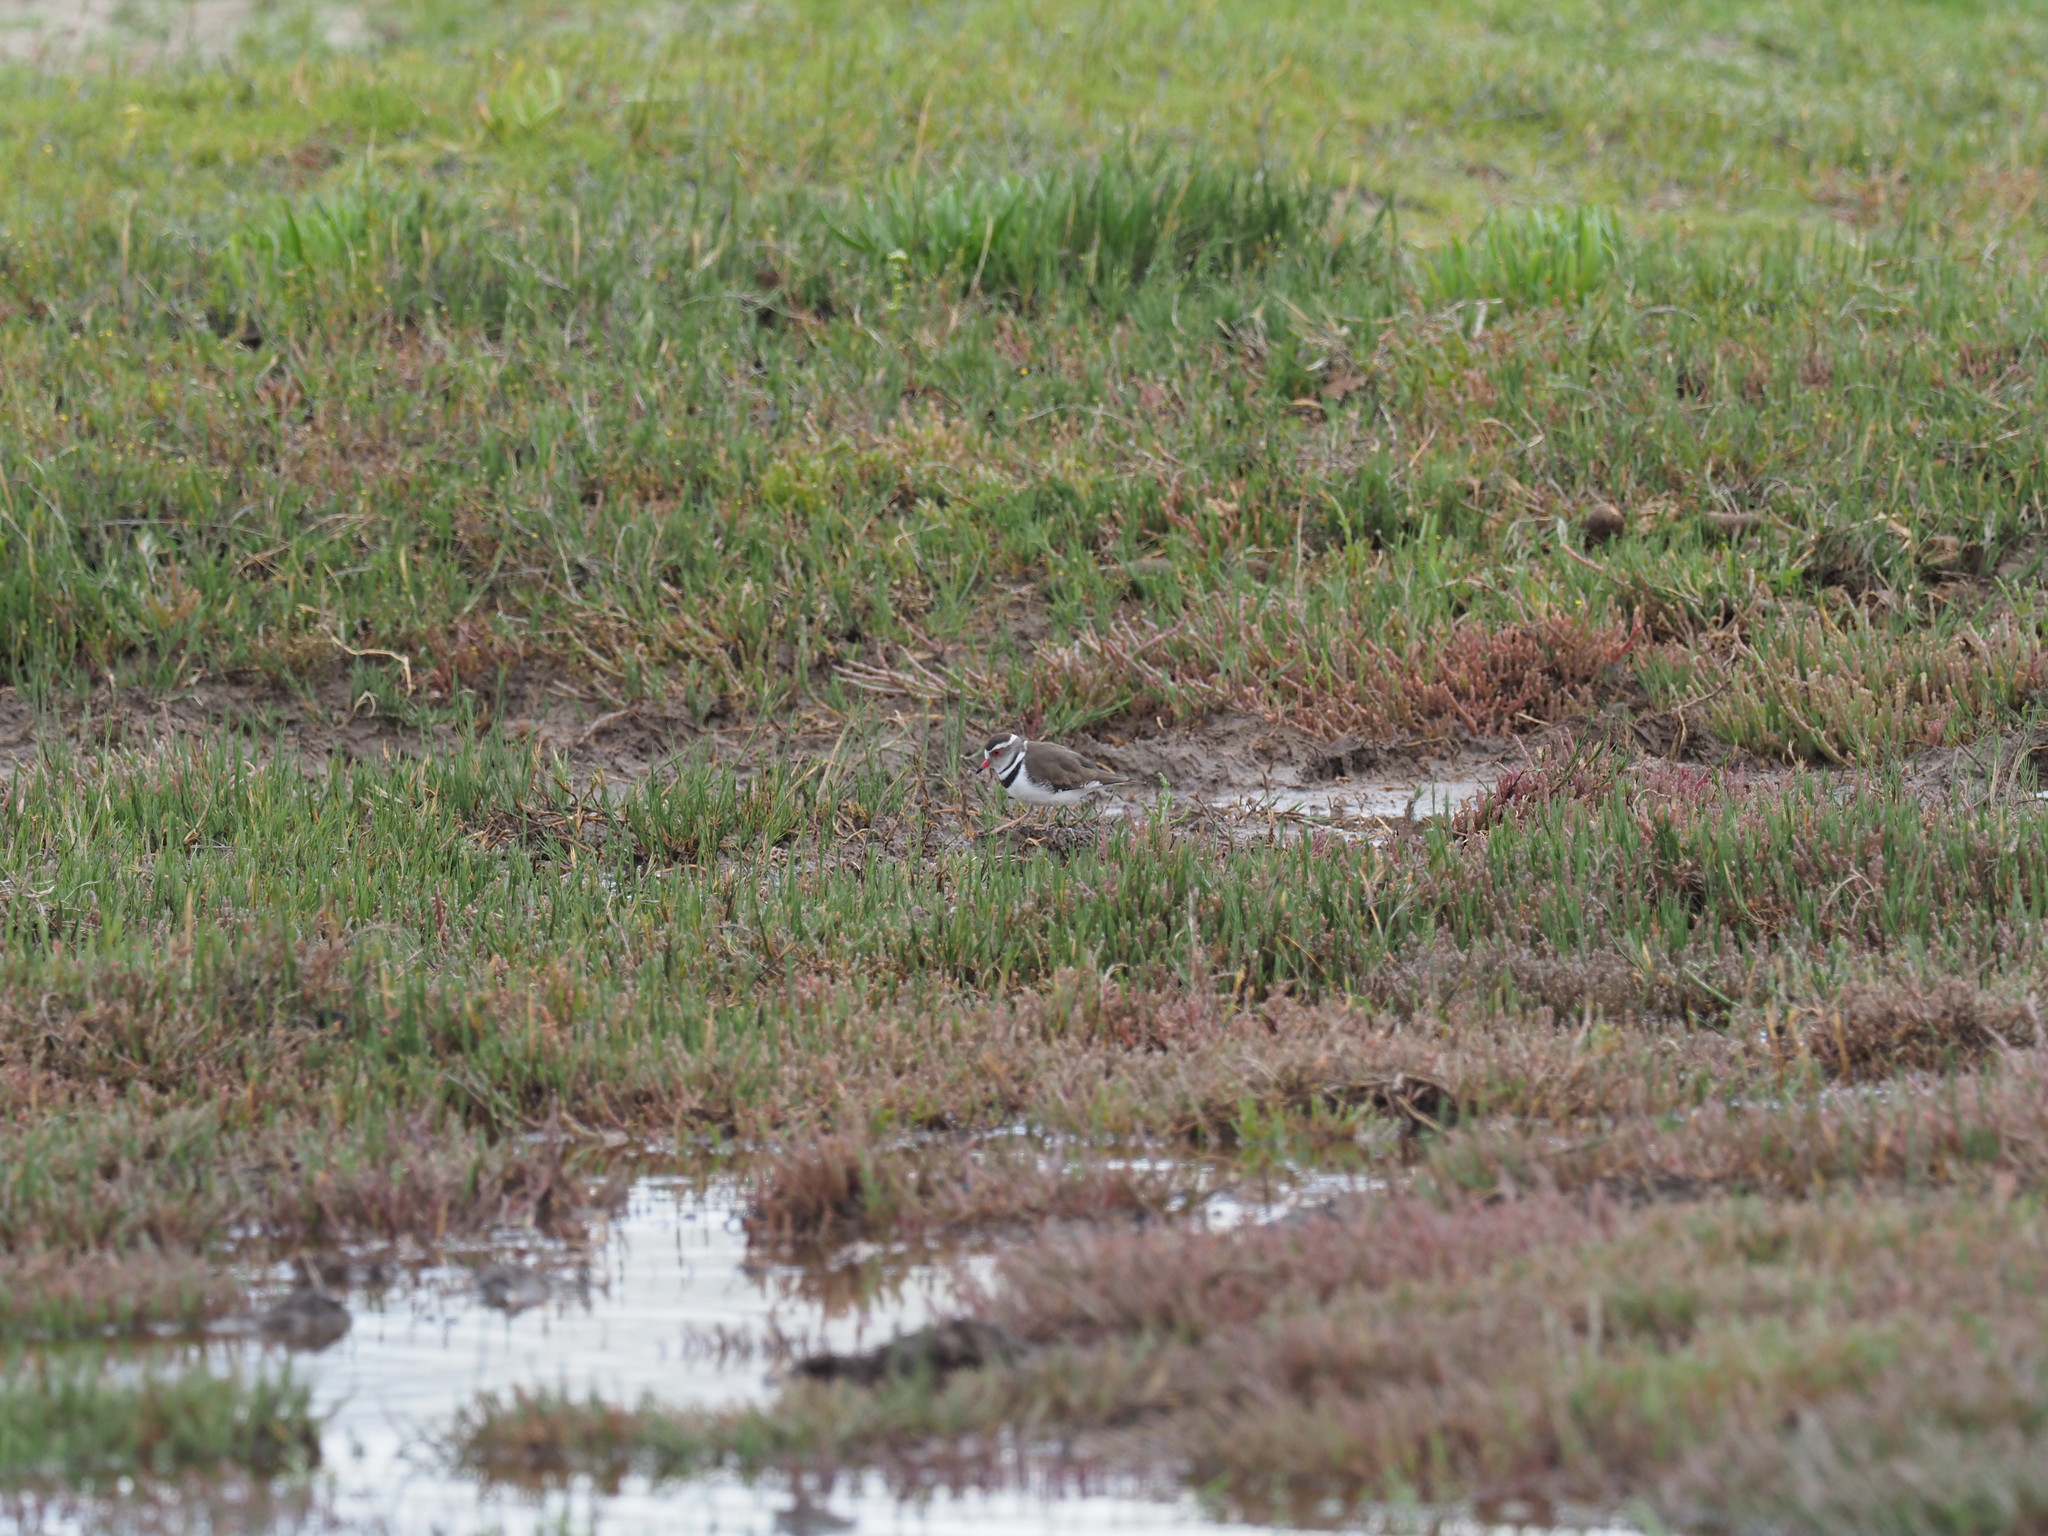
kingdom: Animalia
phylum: Chordata
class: Aves
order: Charadriiformes
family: Charadriidae
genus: Charadrius
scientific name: Charadrius tricollaris
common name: Three-banded plover
